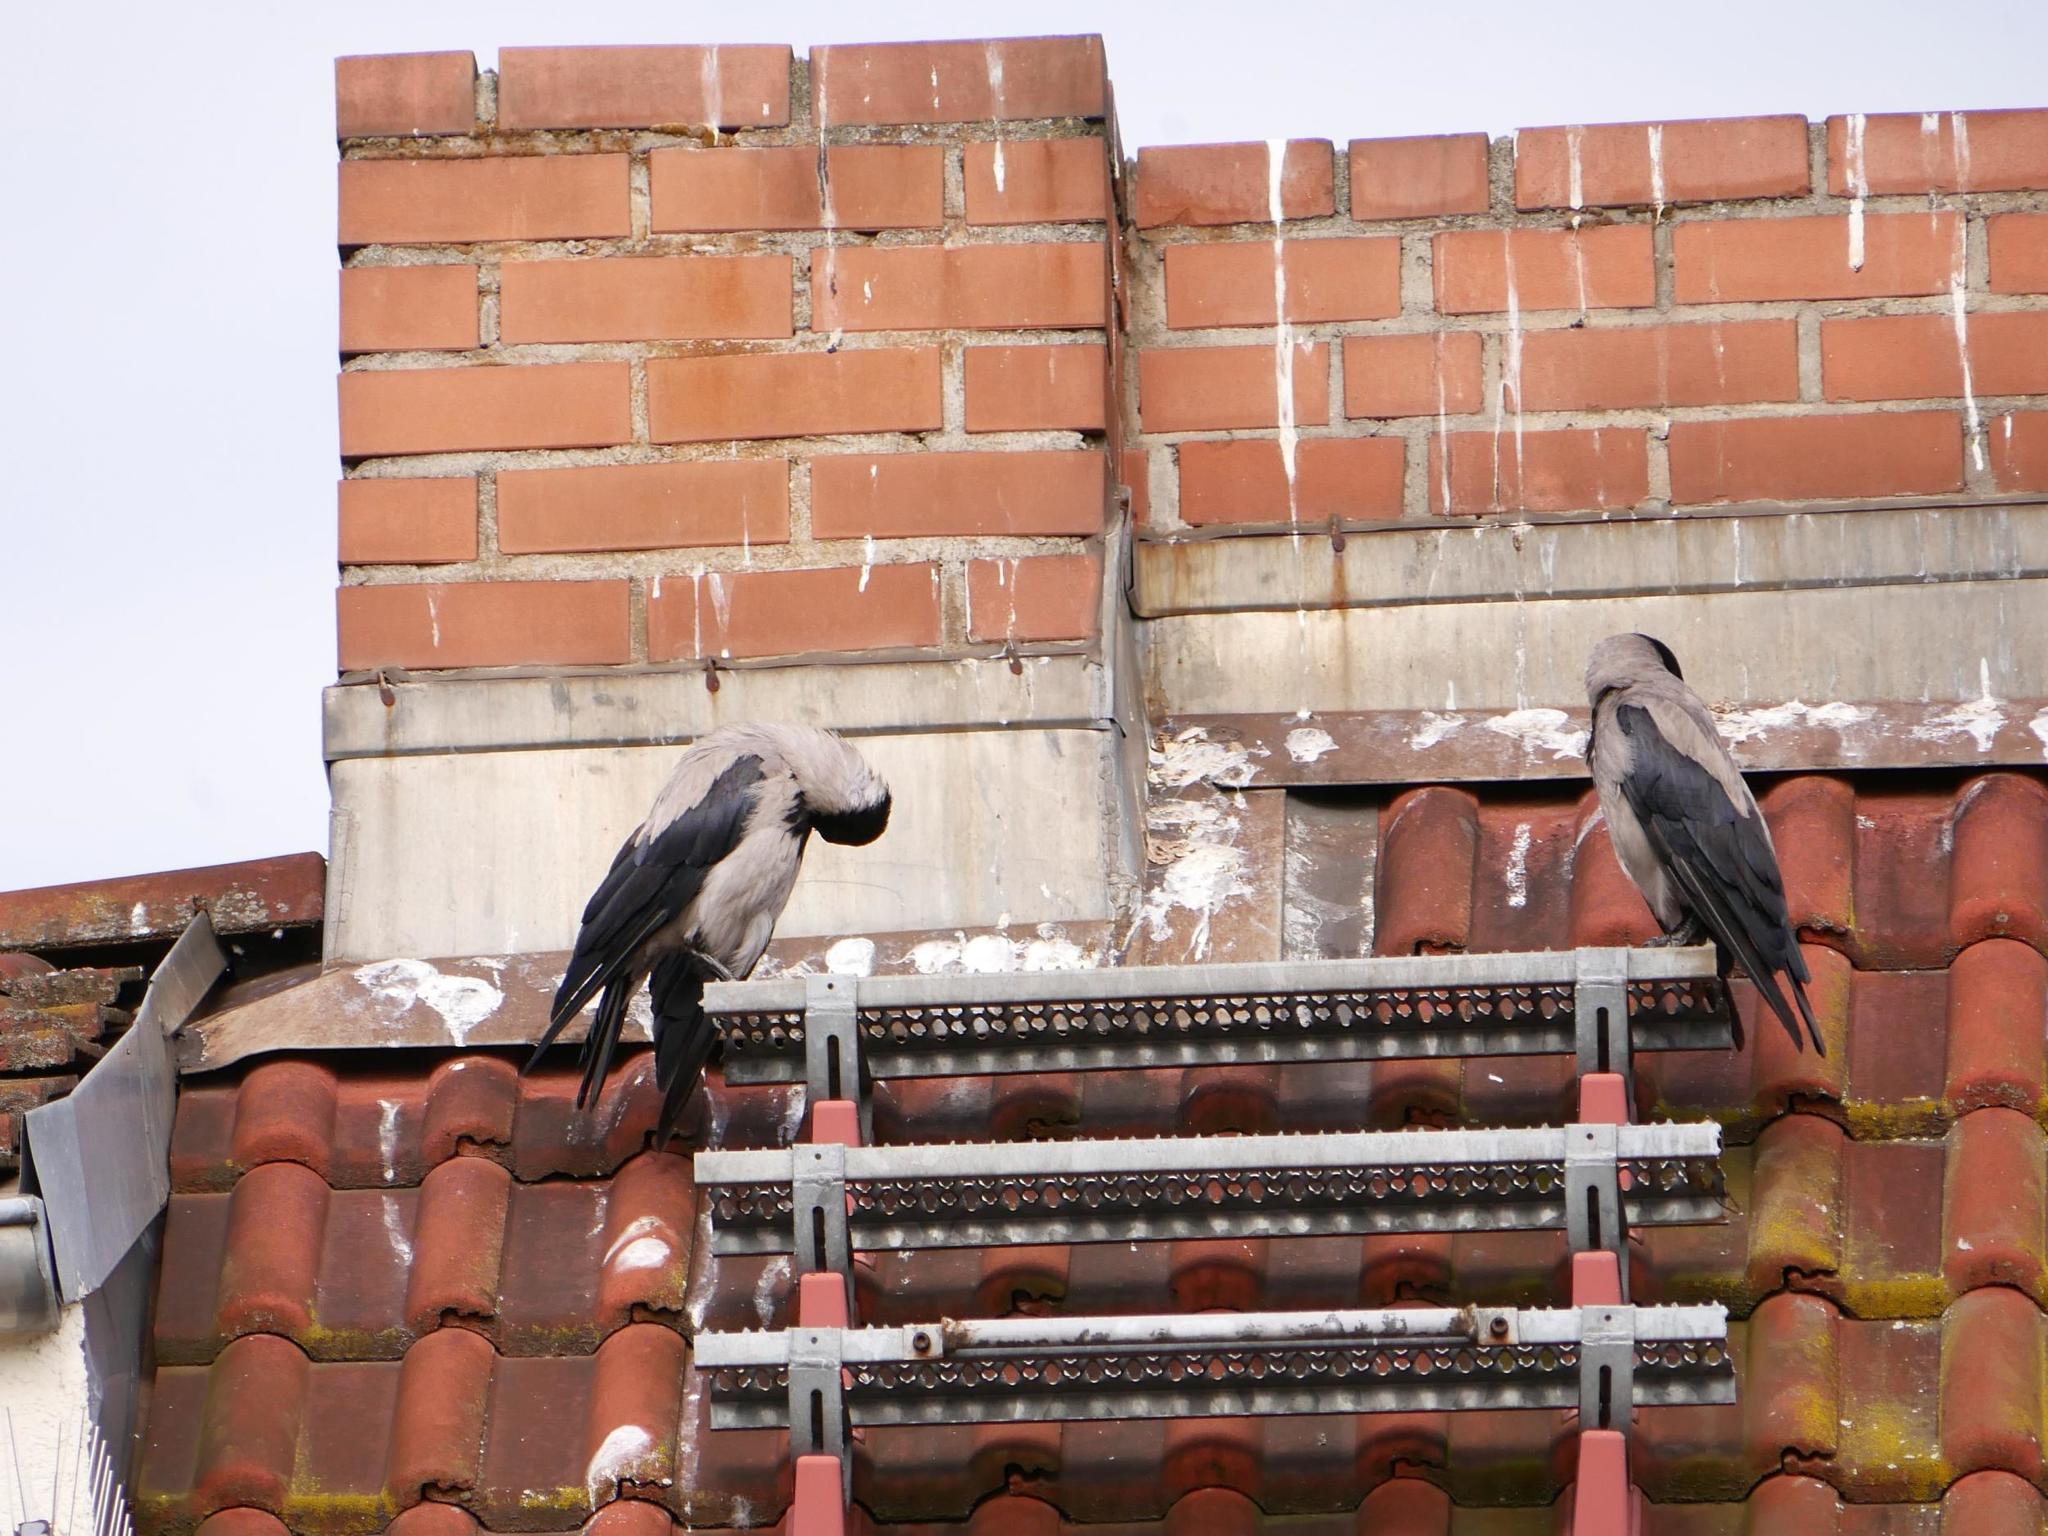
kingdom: Animalia
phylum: Chordata
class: Aves
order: Passeriformes
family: Corvidae
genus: Corvus
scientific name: Corvus cornix
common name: Hooded crow
